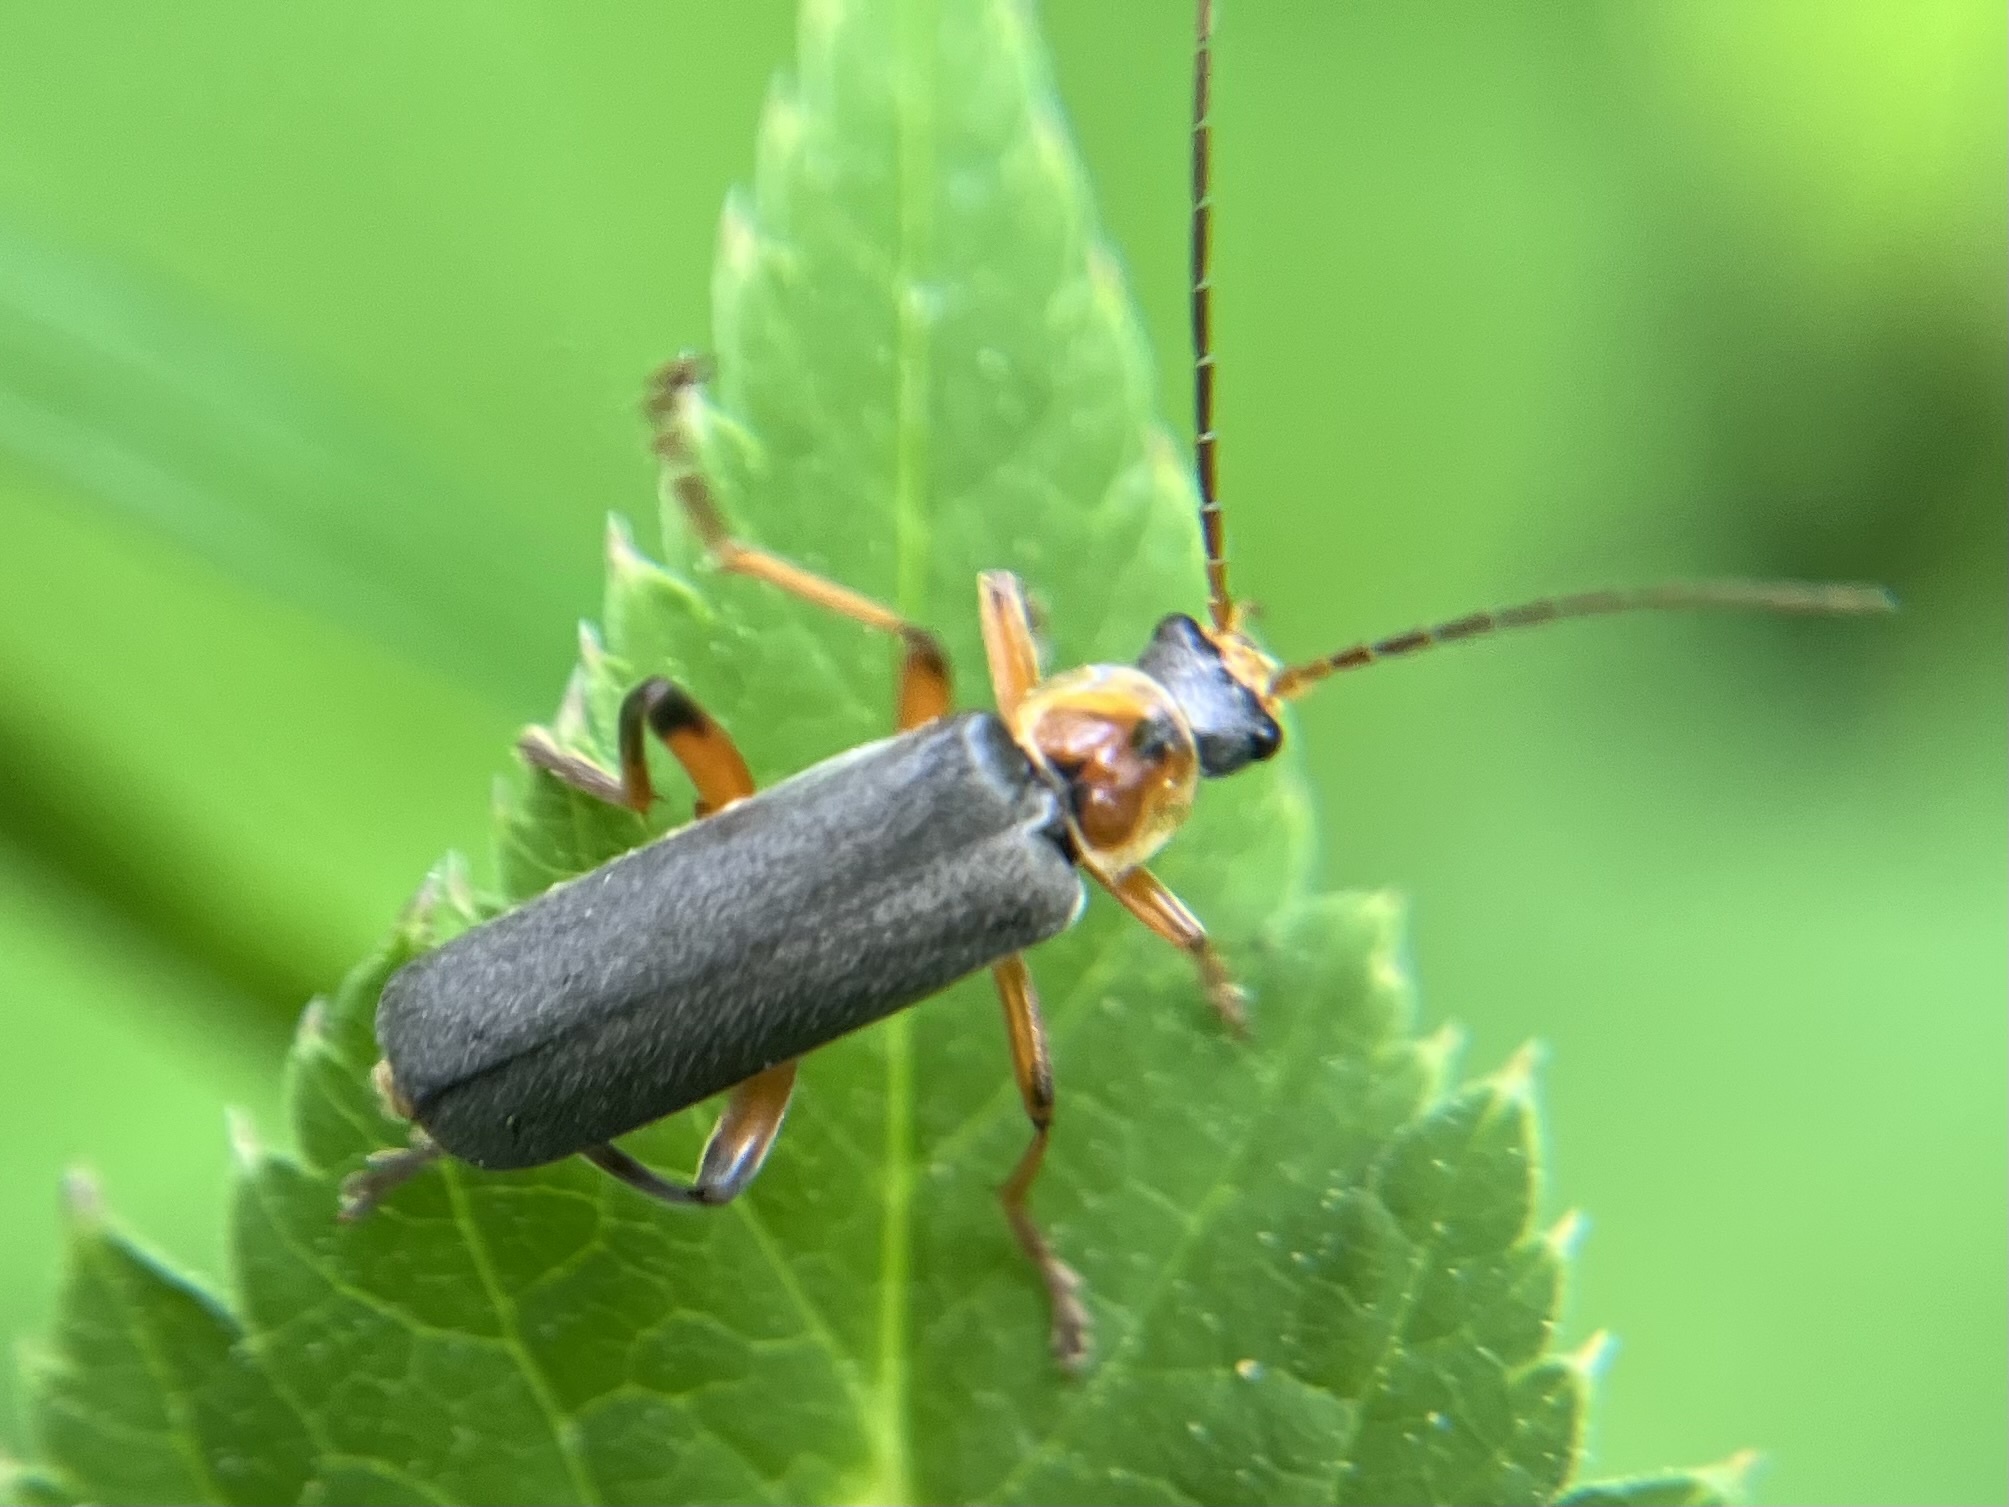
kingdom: Animalia
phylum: Arthropoda
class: Insecta
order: Coleoptera
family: Cantharidae
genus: Cantharis
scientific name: Cantharis nigricans
